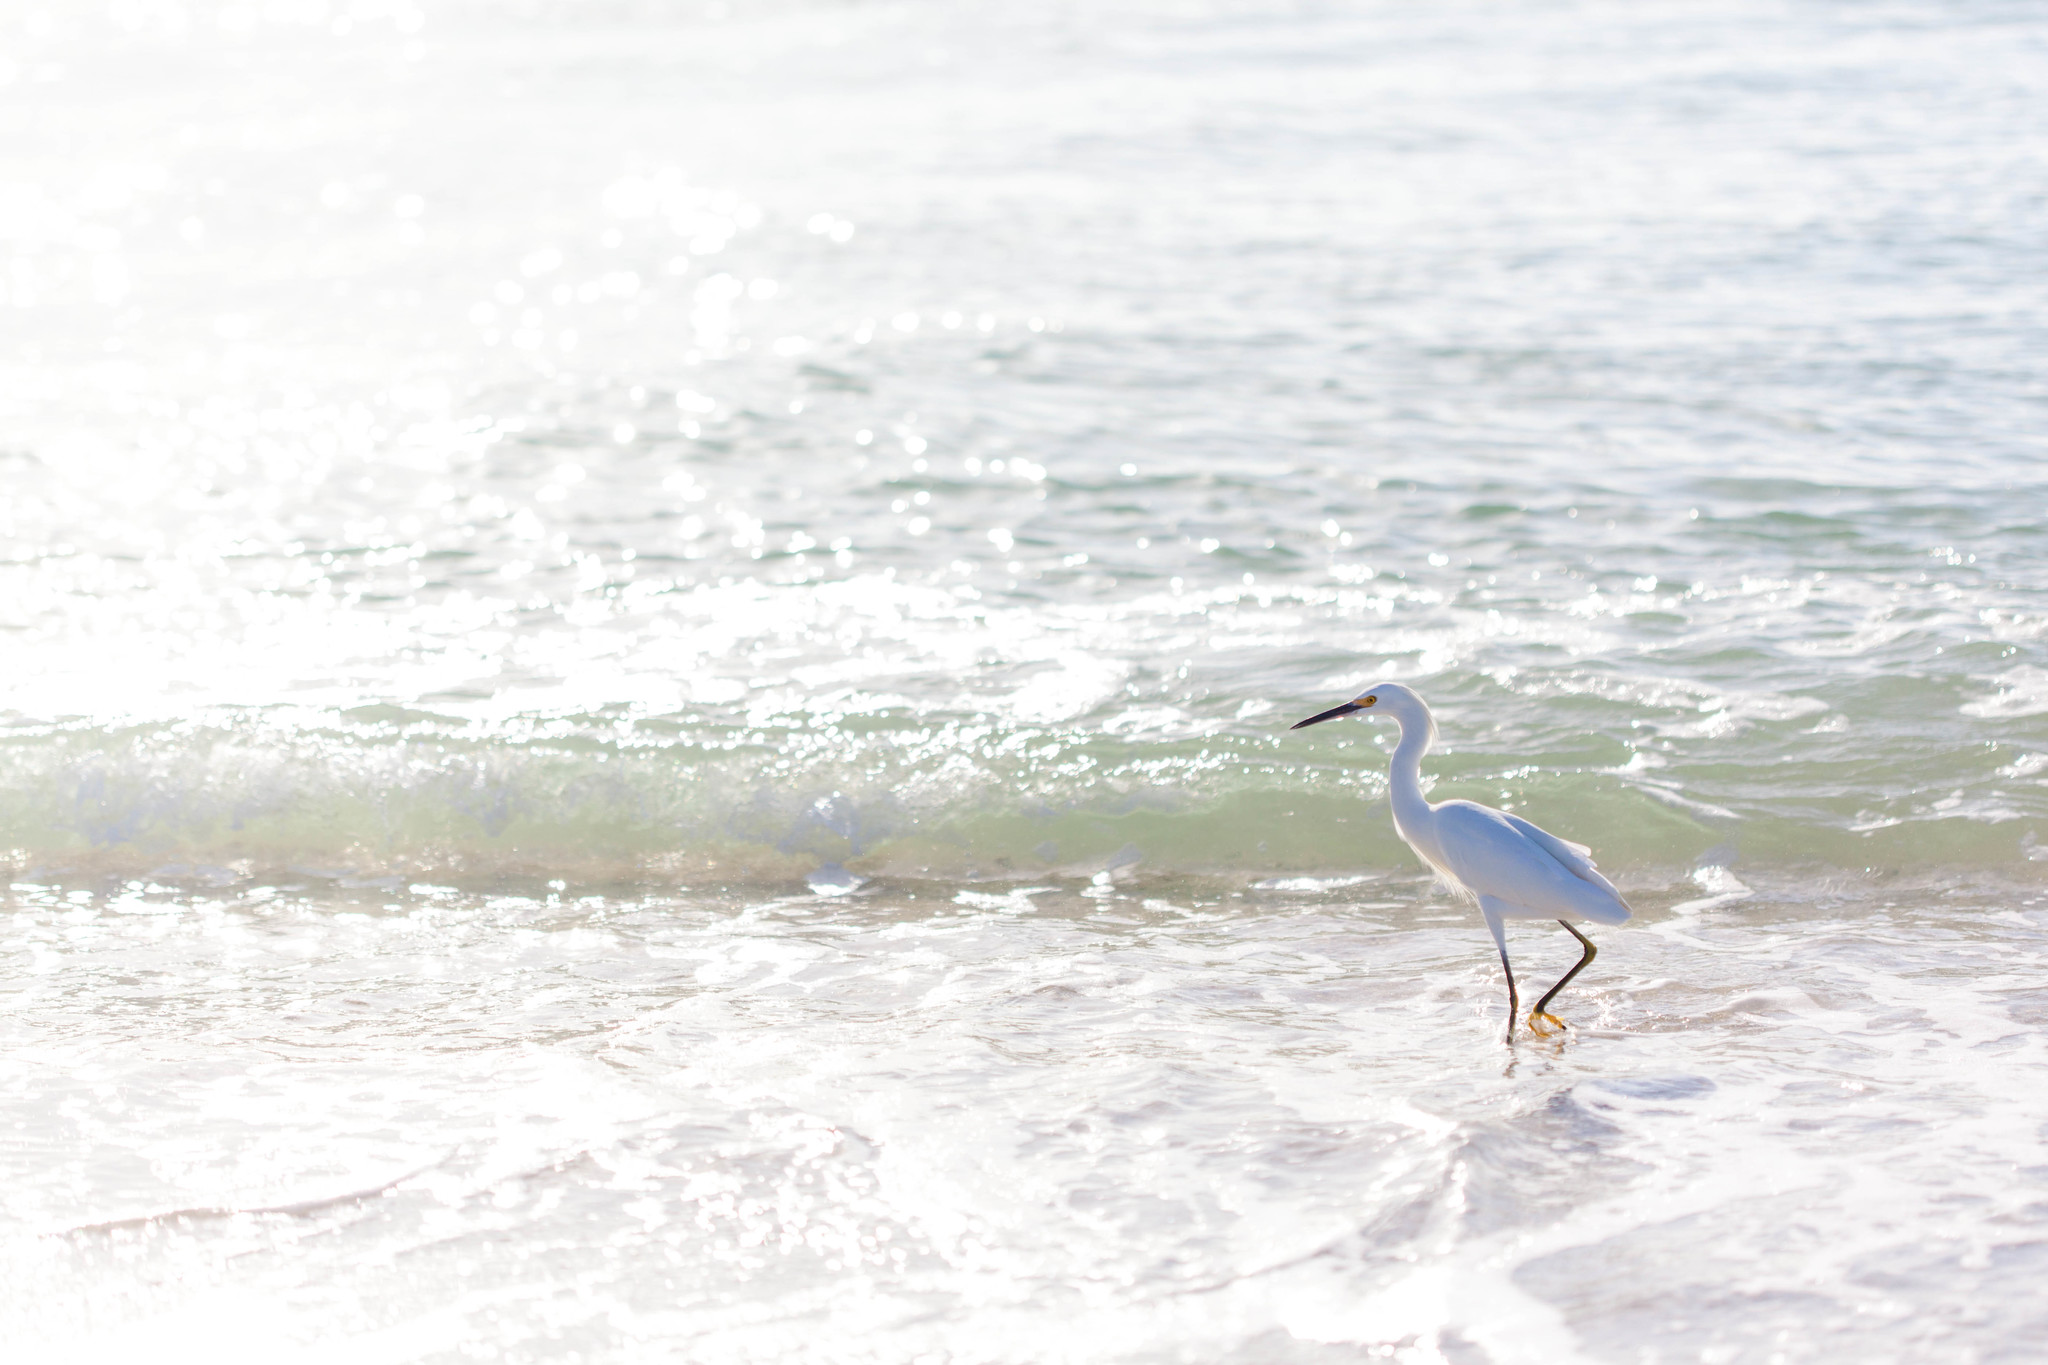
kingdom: Animalia
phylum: Chordata
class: Aves
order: Pelecaniformes
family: Ardeidae
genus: Egretta
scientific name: Egretta thula
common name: Snowy egret
